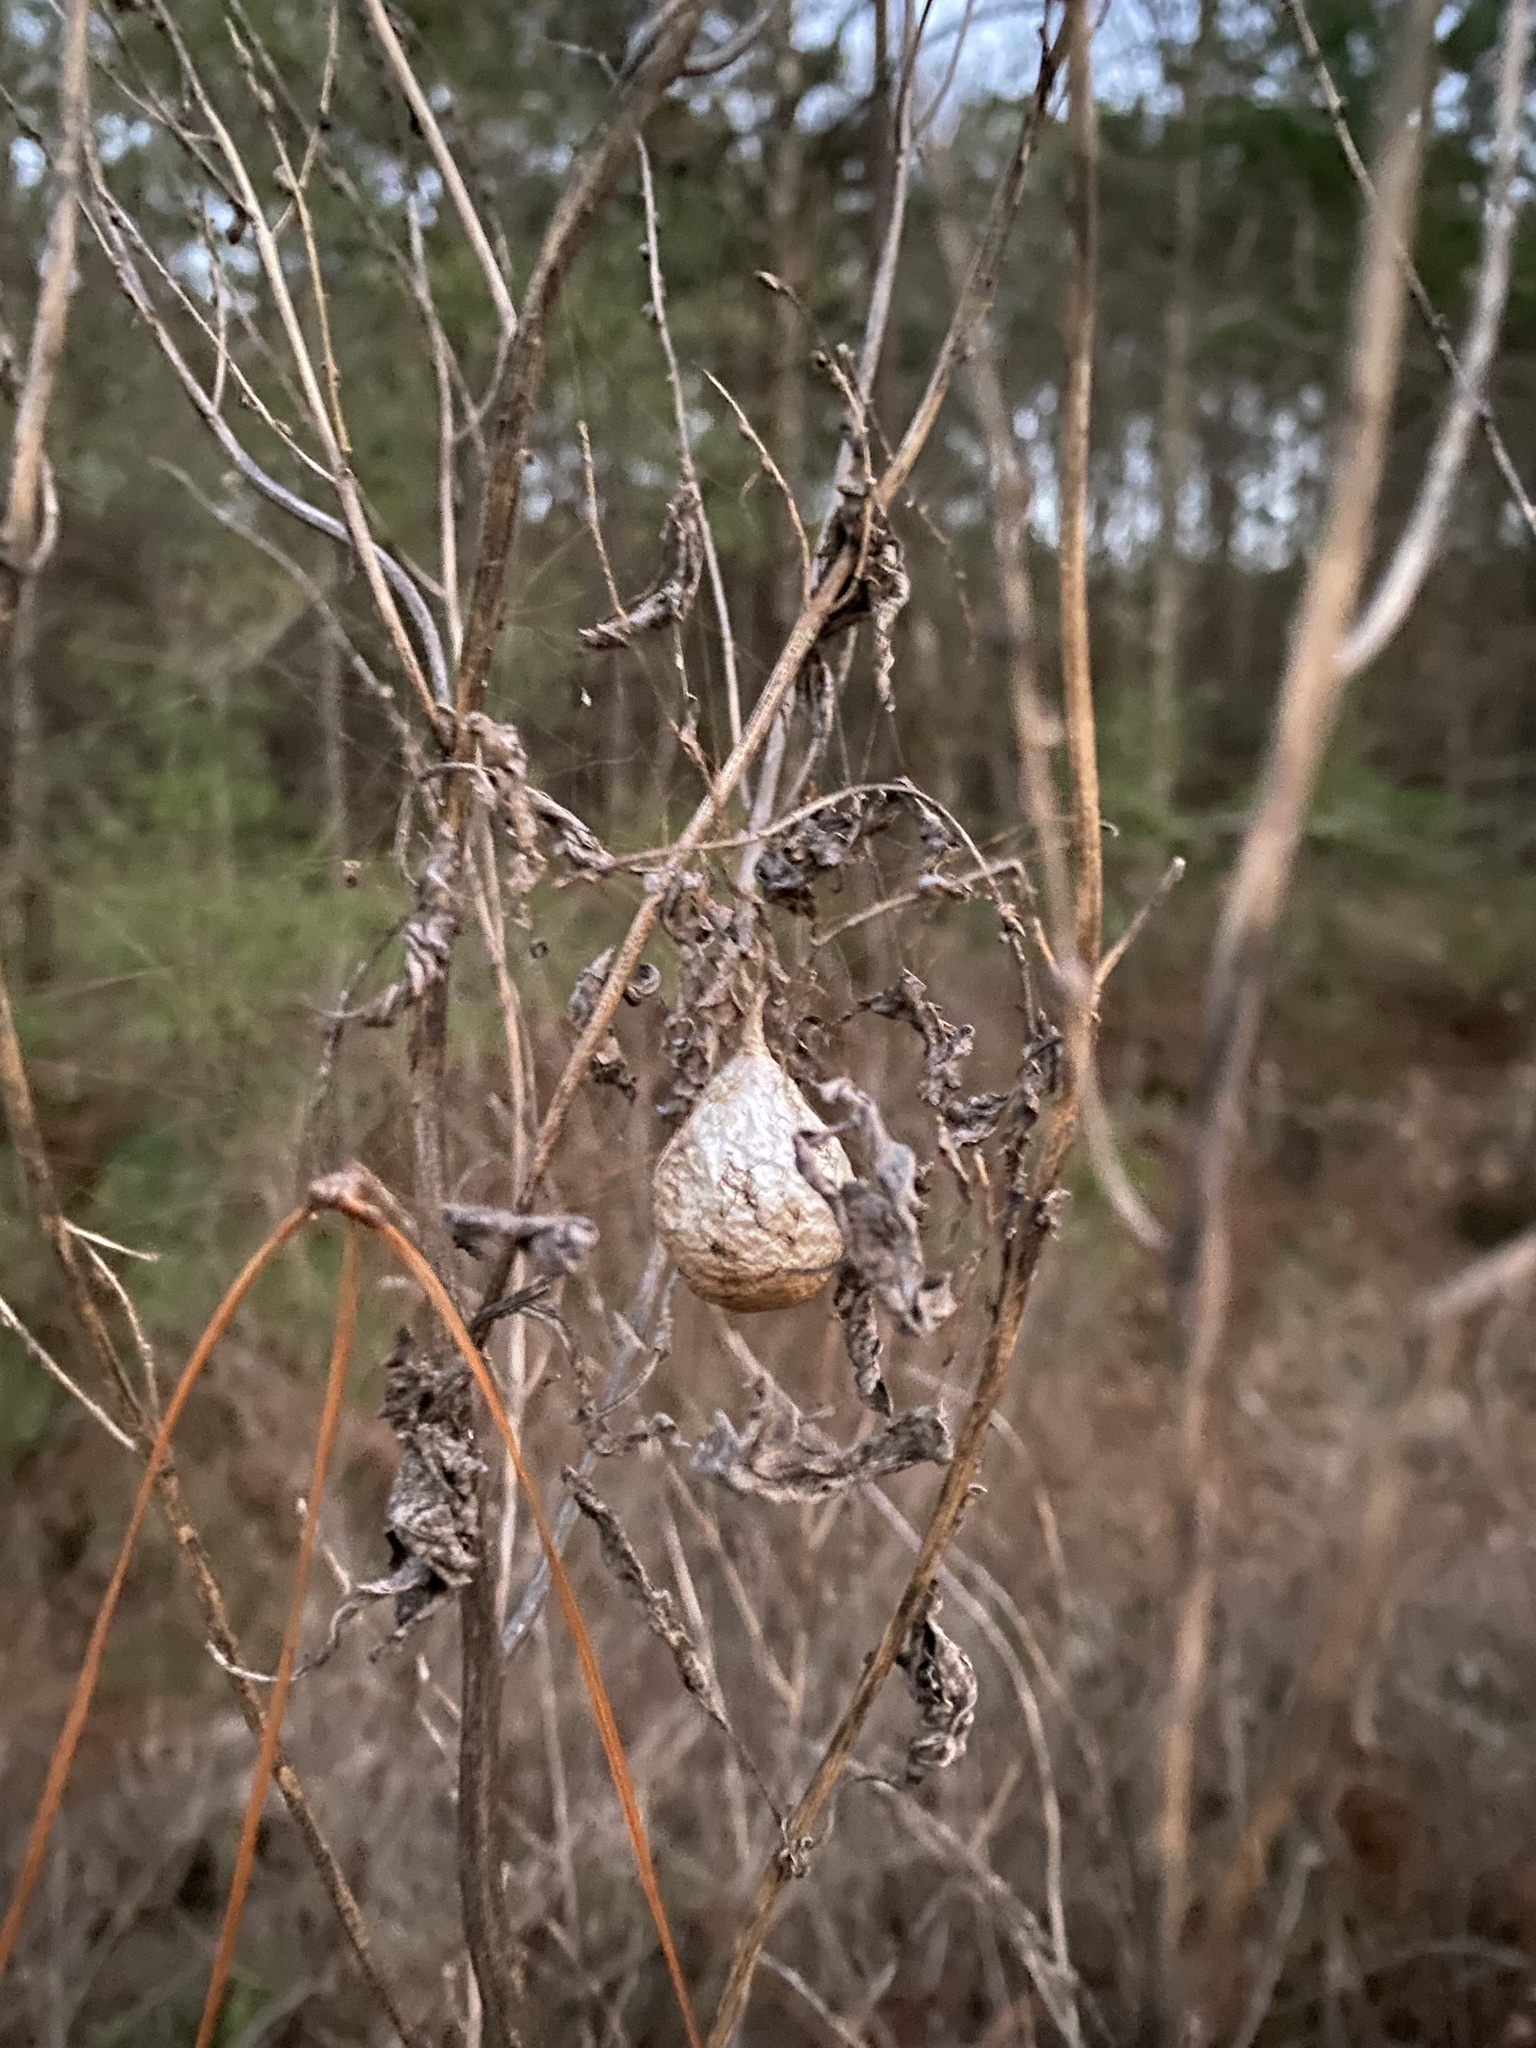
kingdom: Animalia
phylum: Arthropoda
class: Arachnida
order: Araneae
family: Araneidae
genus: Argiope
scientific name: Argiope aurantia
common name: Orb weavers
